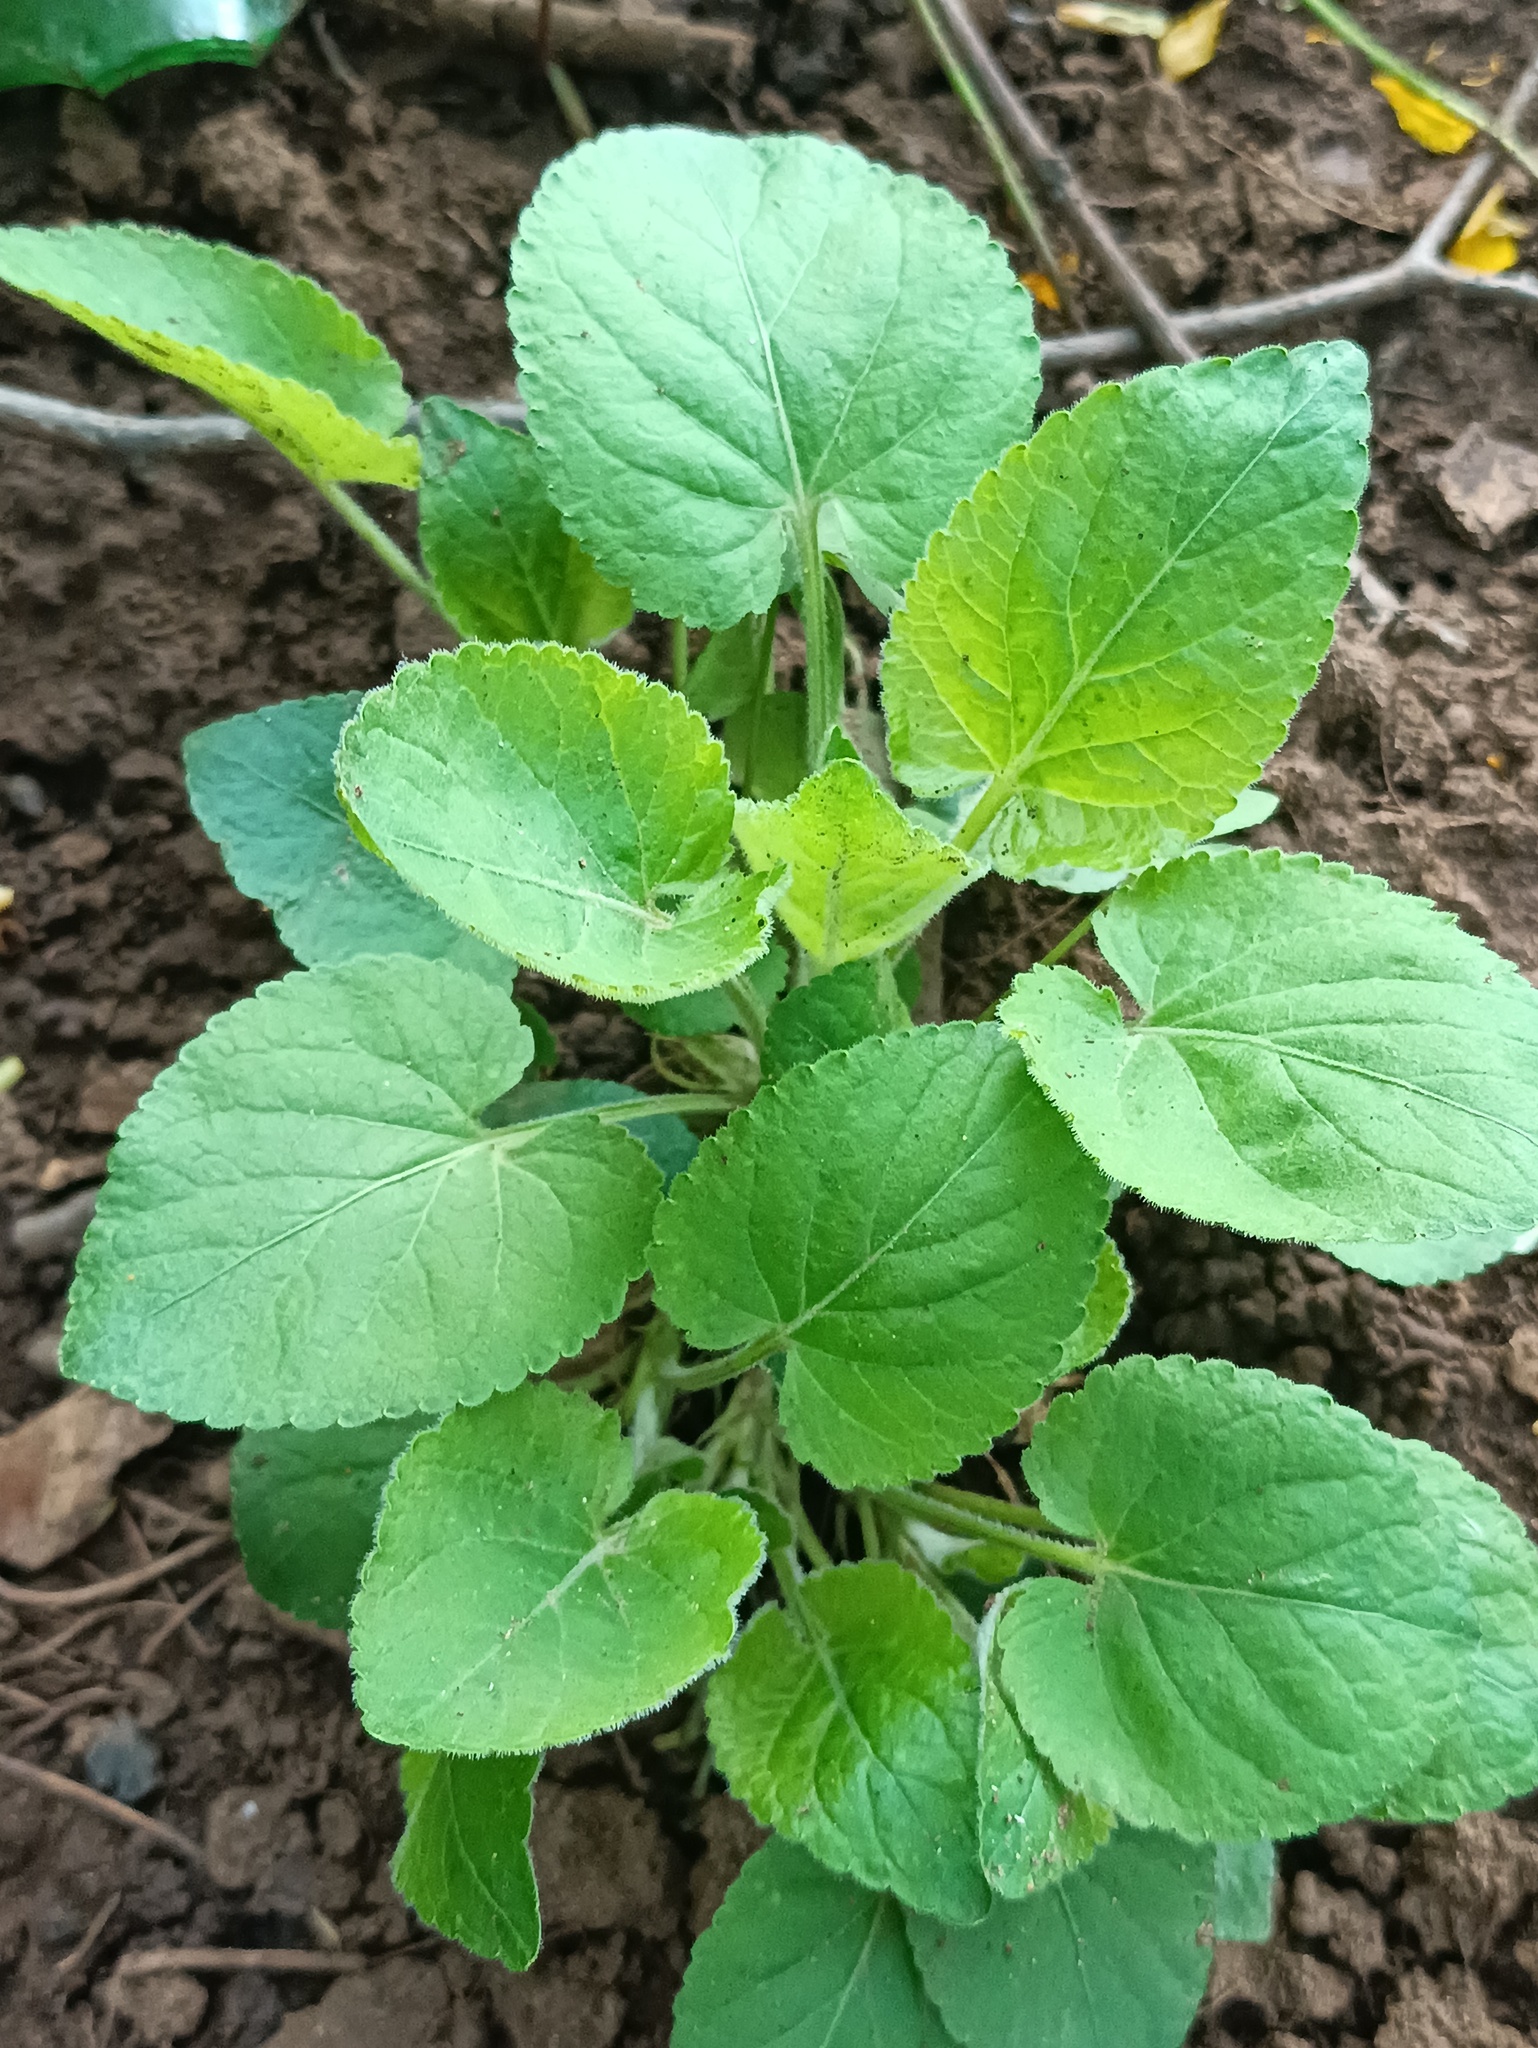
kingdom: Plantae
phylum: Tracheophyta
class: Magnoliopsida
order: Malpighiales
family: Violaceae
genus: Viola
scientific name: Viola collina
